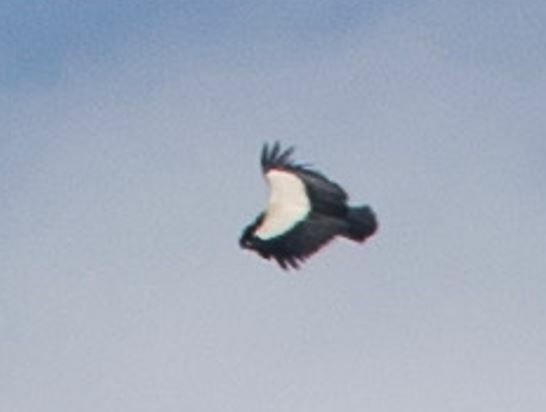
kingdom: Animalia
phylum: Chordata
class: Aves
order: Accipitriformes
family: Cathartidae
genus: Sarcoramphus
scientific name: Sarcoramphus papa
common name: King vulture
